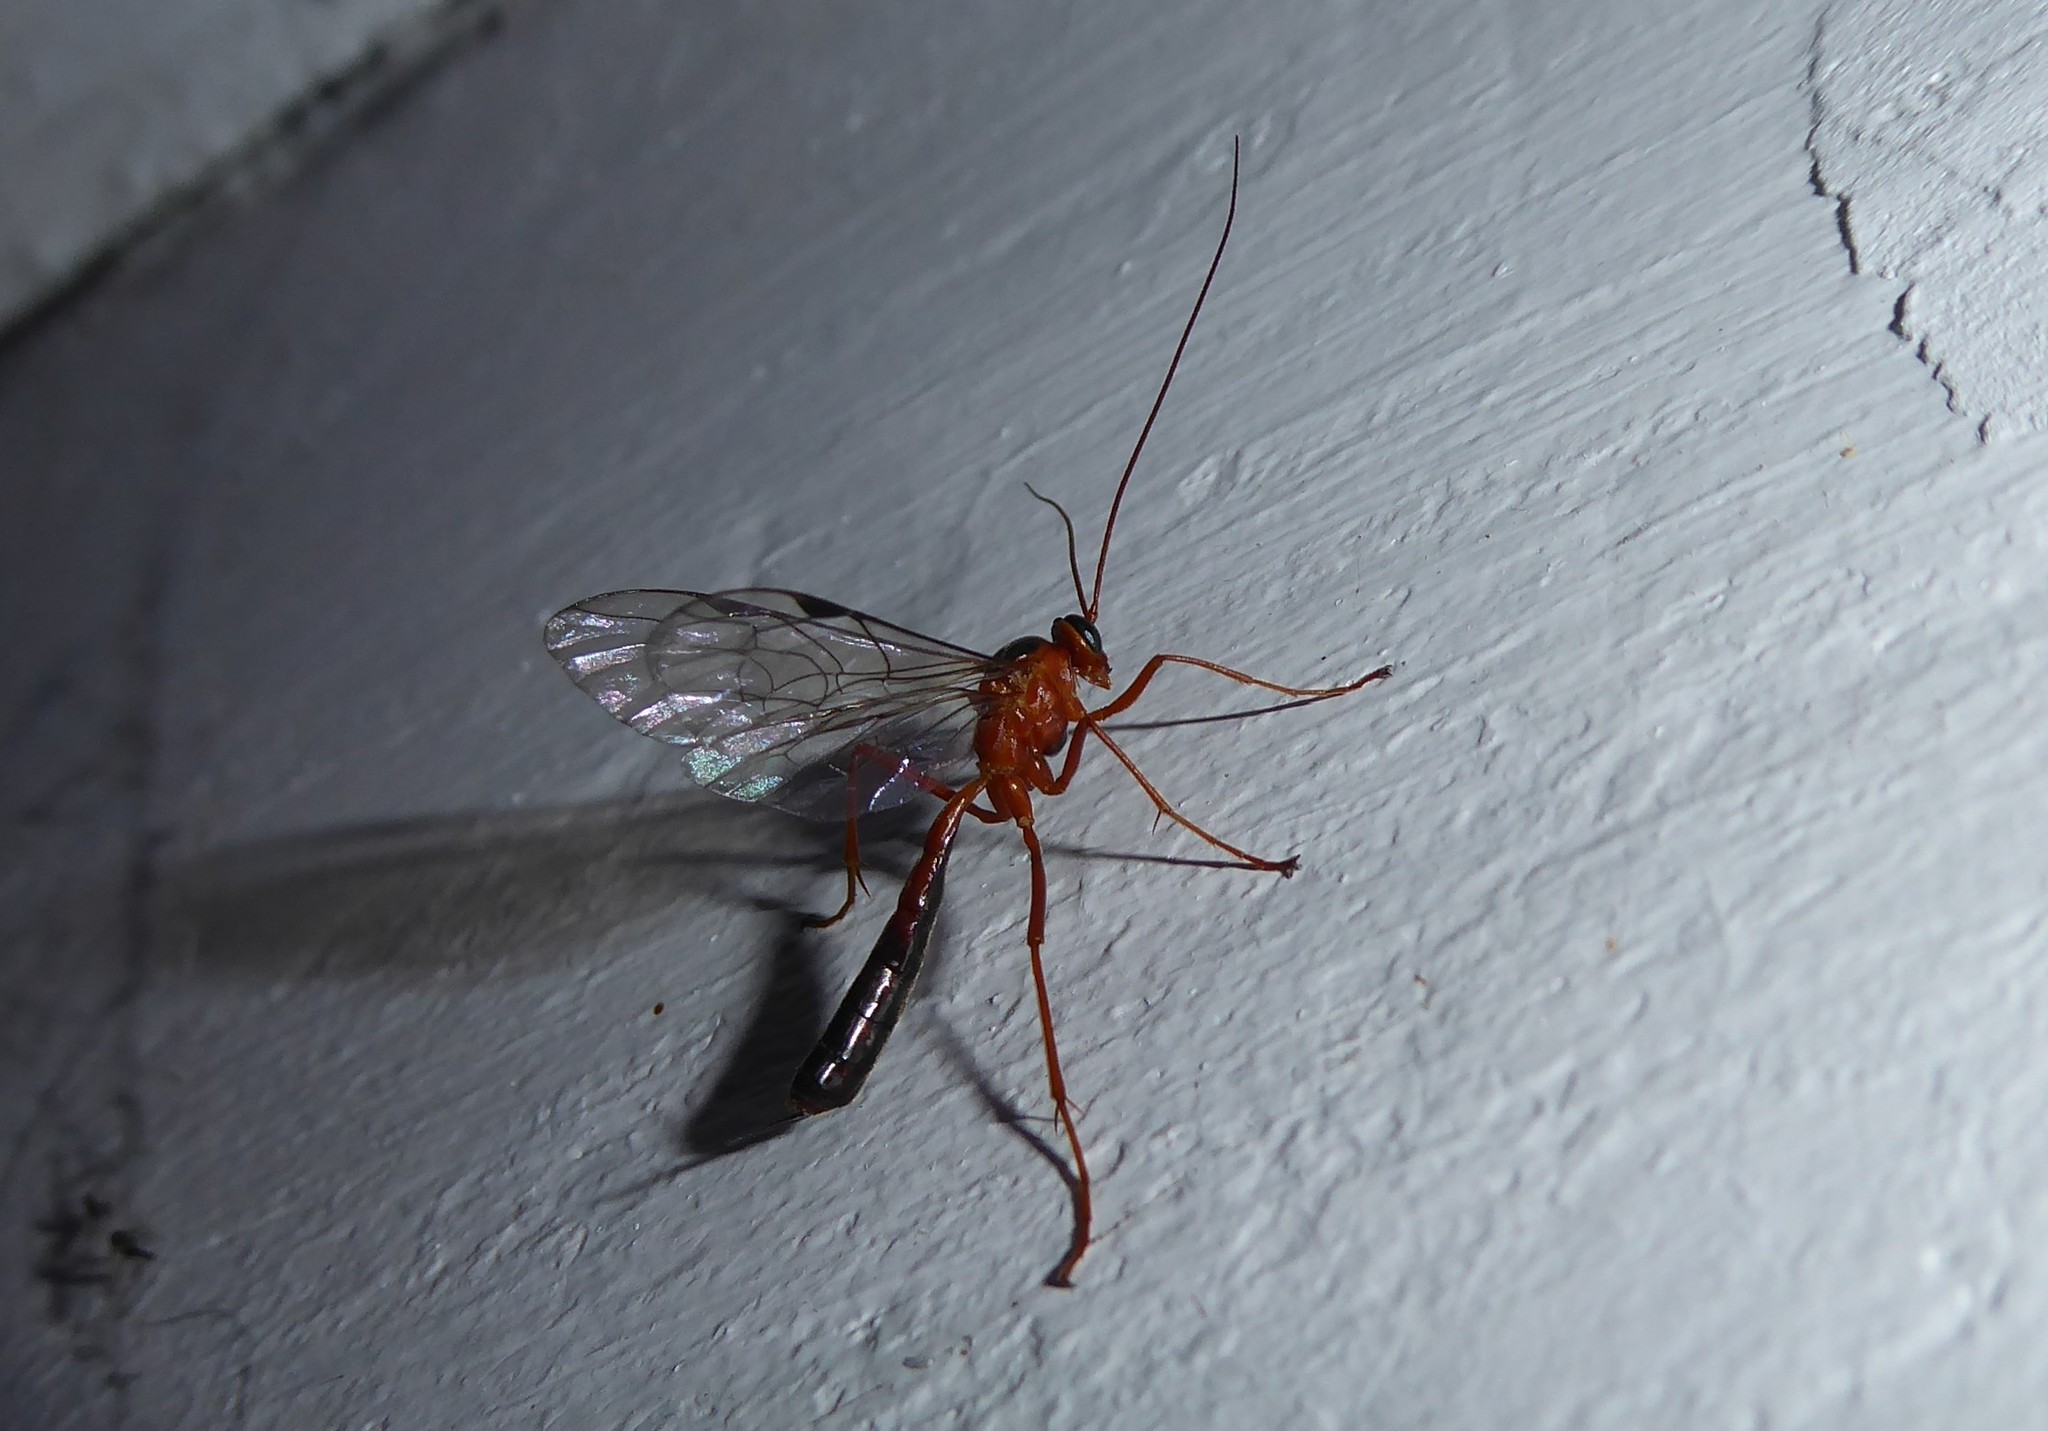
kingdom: Animalia
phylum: Arthropoda
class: Insecta
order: Hymenoptera
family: Ichneumonidae
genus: Netelia
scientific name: Netelia ephippiata
